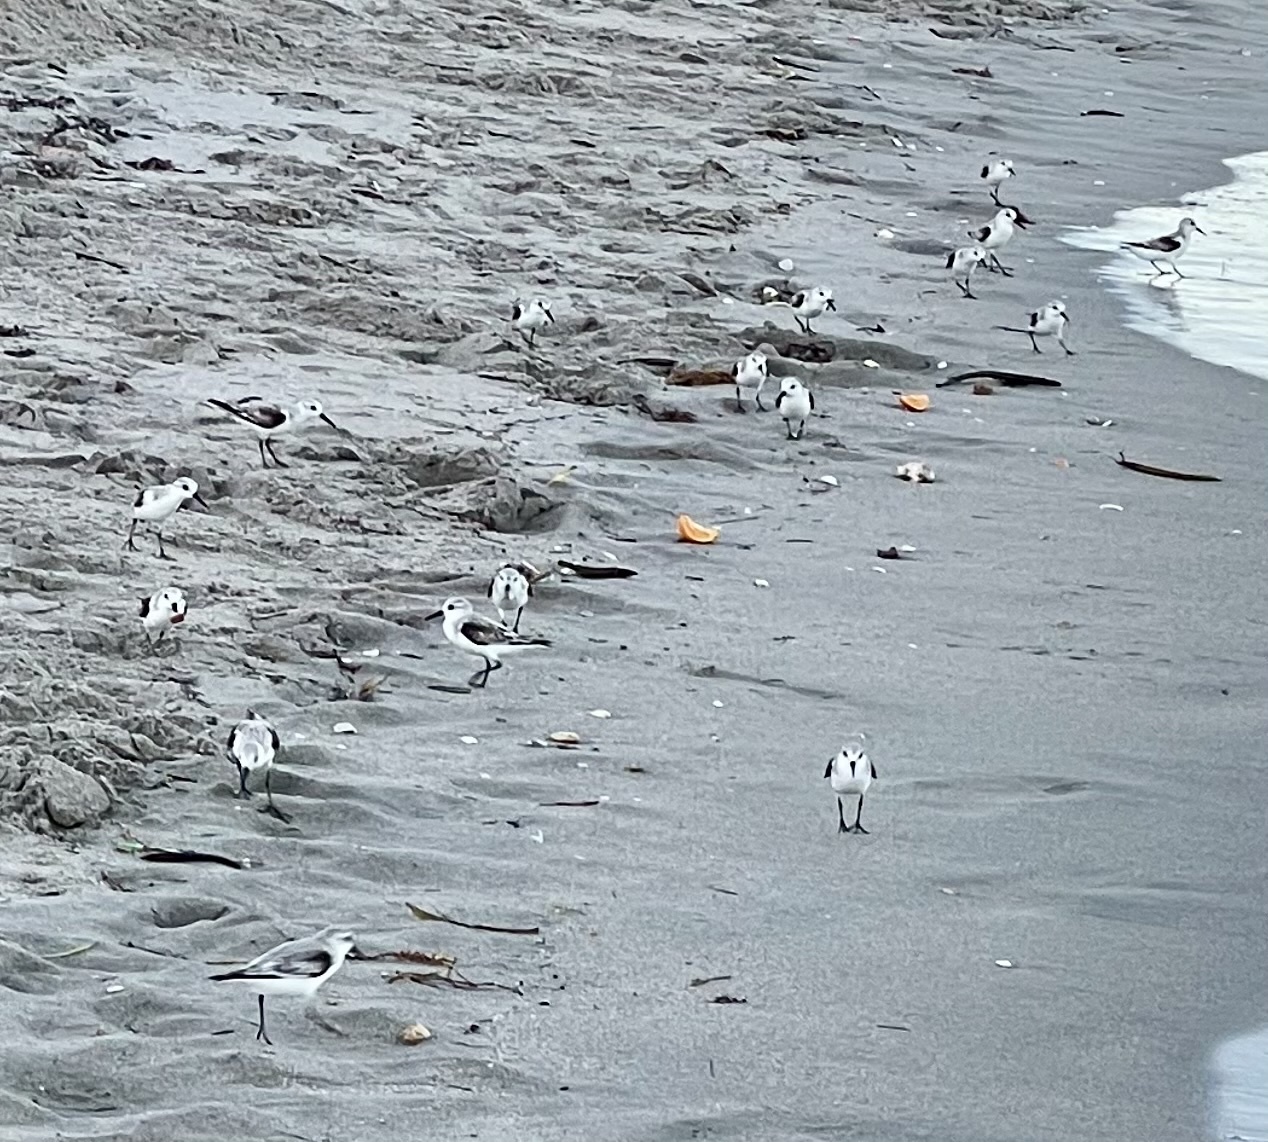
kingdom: Animalia
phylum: Chordata
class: Aves
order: Charadriiformes
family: Scolopacidae
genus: Calidris
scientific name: Calidris alba
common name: Sanderling
